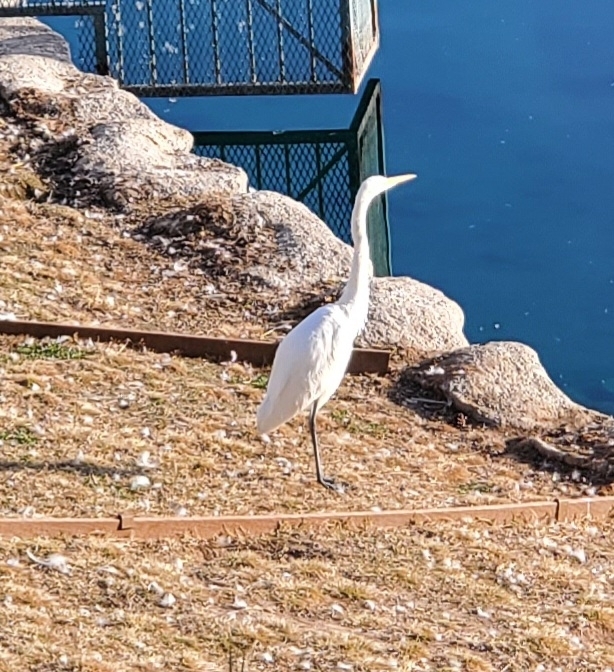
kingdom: Animalia
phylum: Chordata
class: Aves
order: Pelecaniformes
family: Ardeidae
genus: Ardea
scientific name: Ardea alba
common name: Great egret
